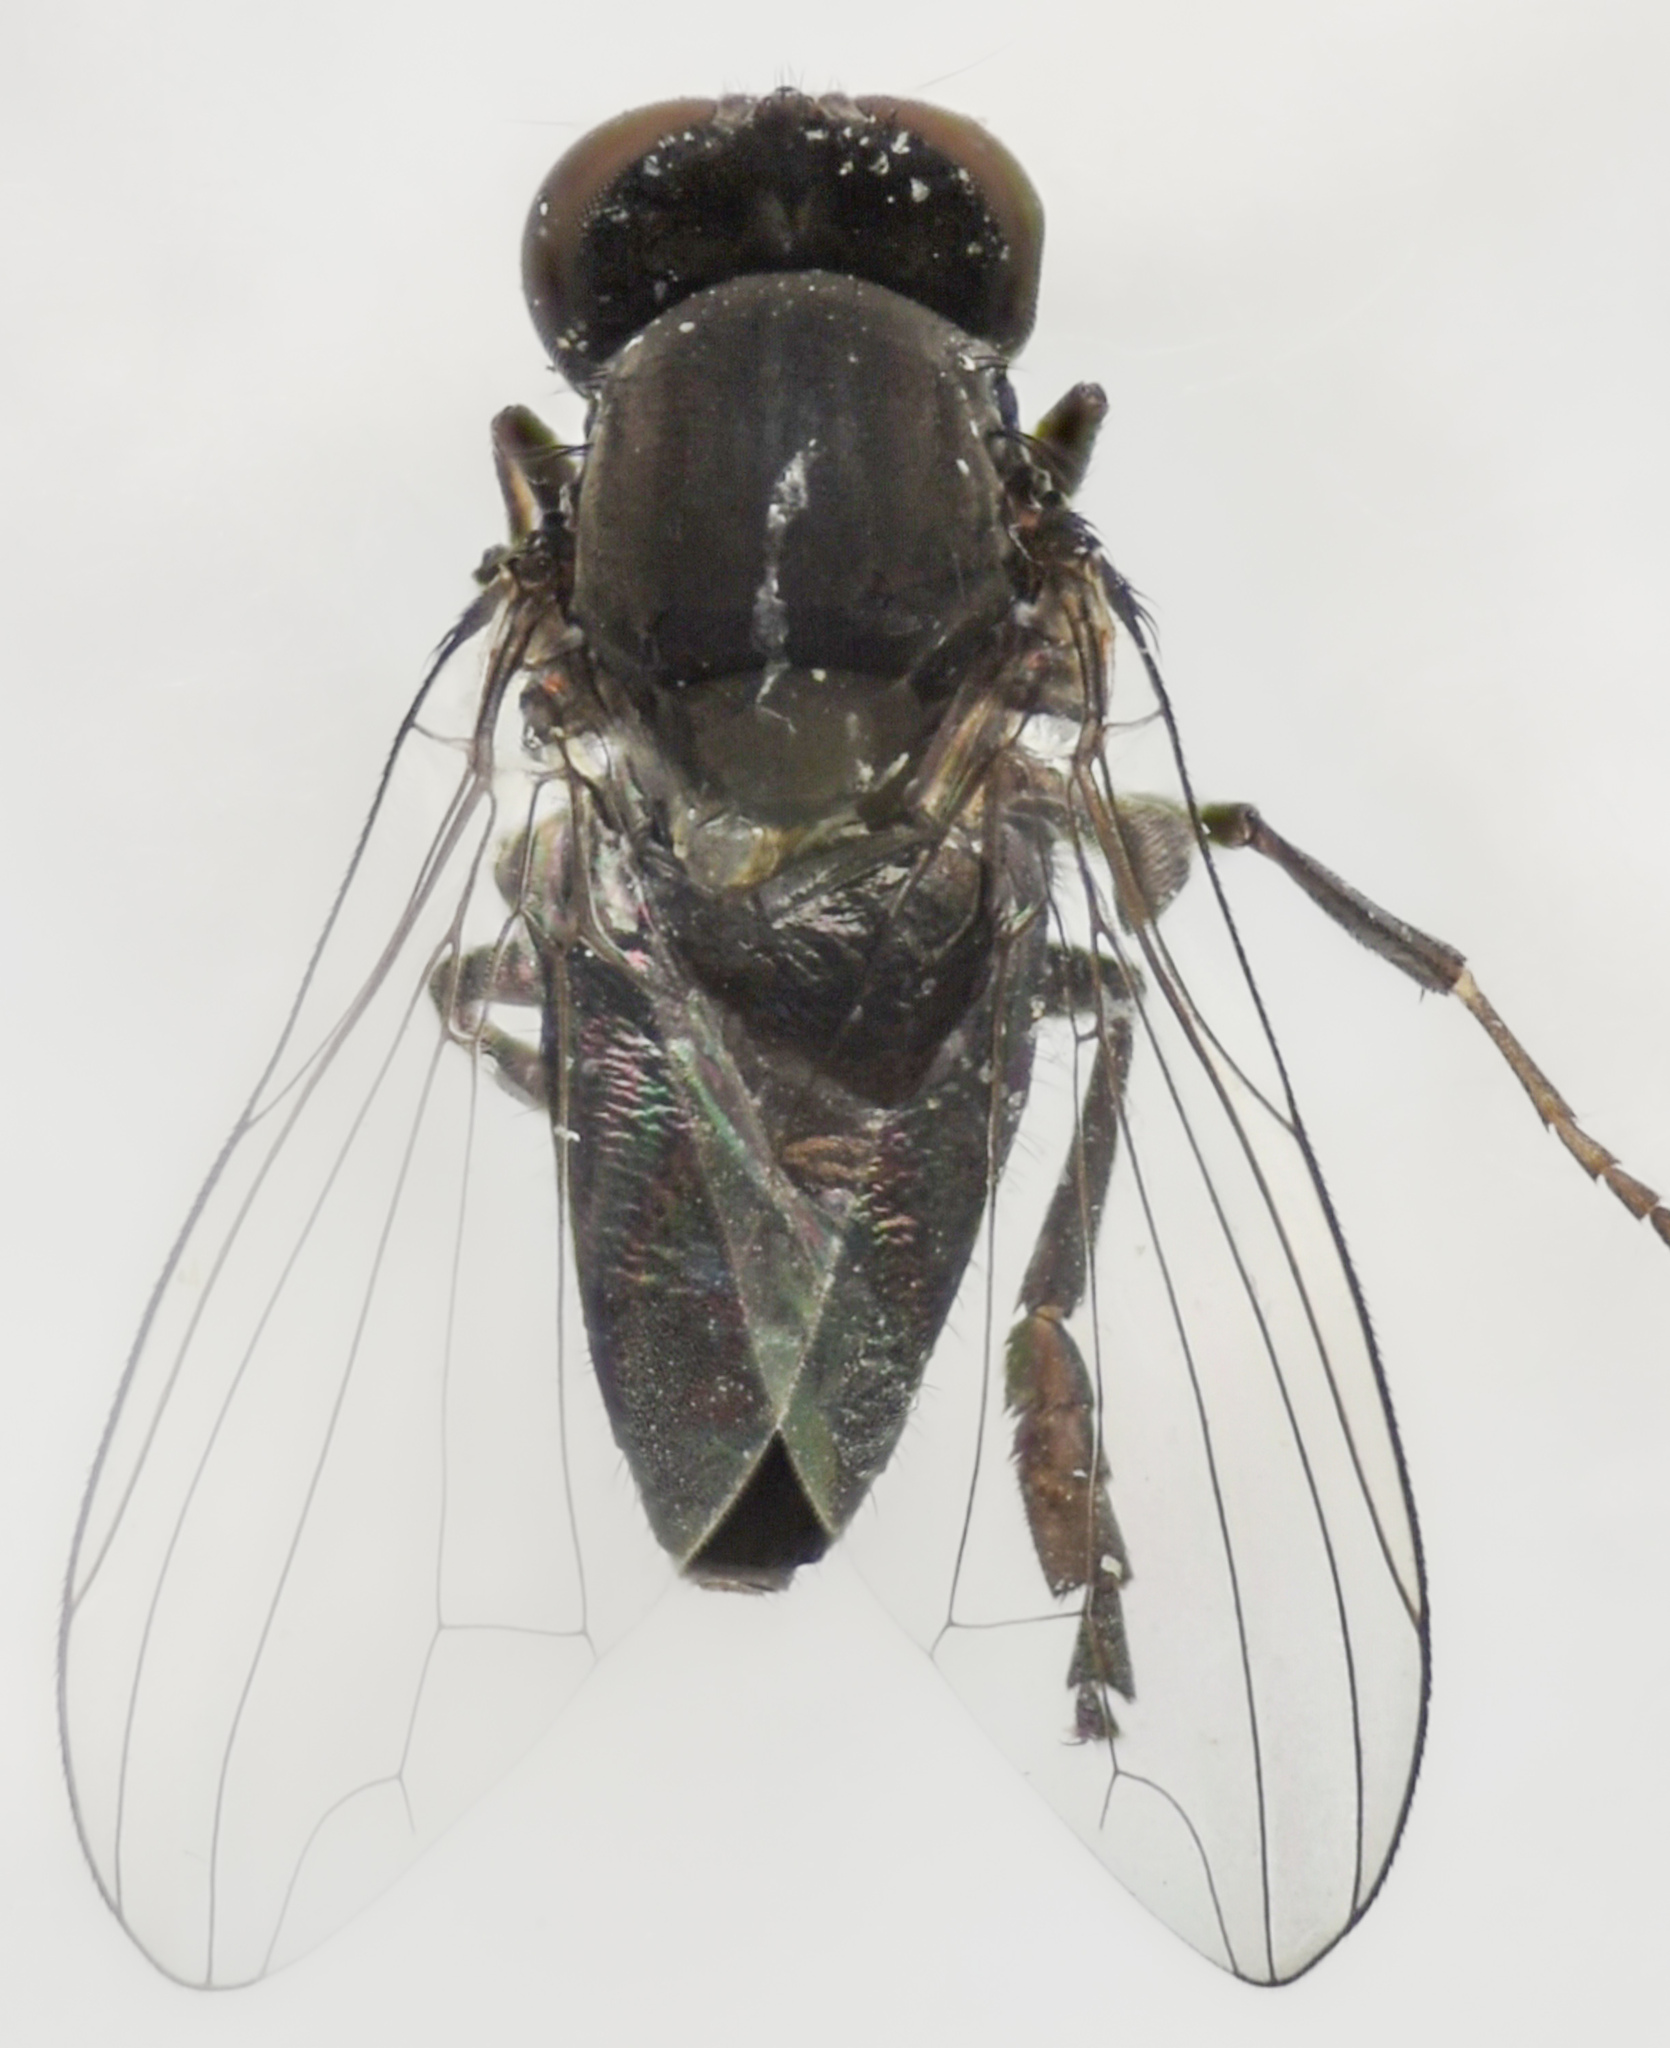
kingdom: Animalia
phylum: Arthropoda
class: Insecta
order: Diptera
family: Platypezidae
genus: Paraplatypeza
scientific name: Paraplatypeza coraxa
